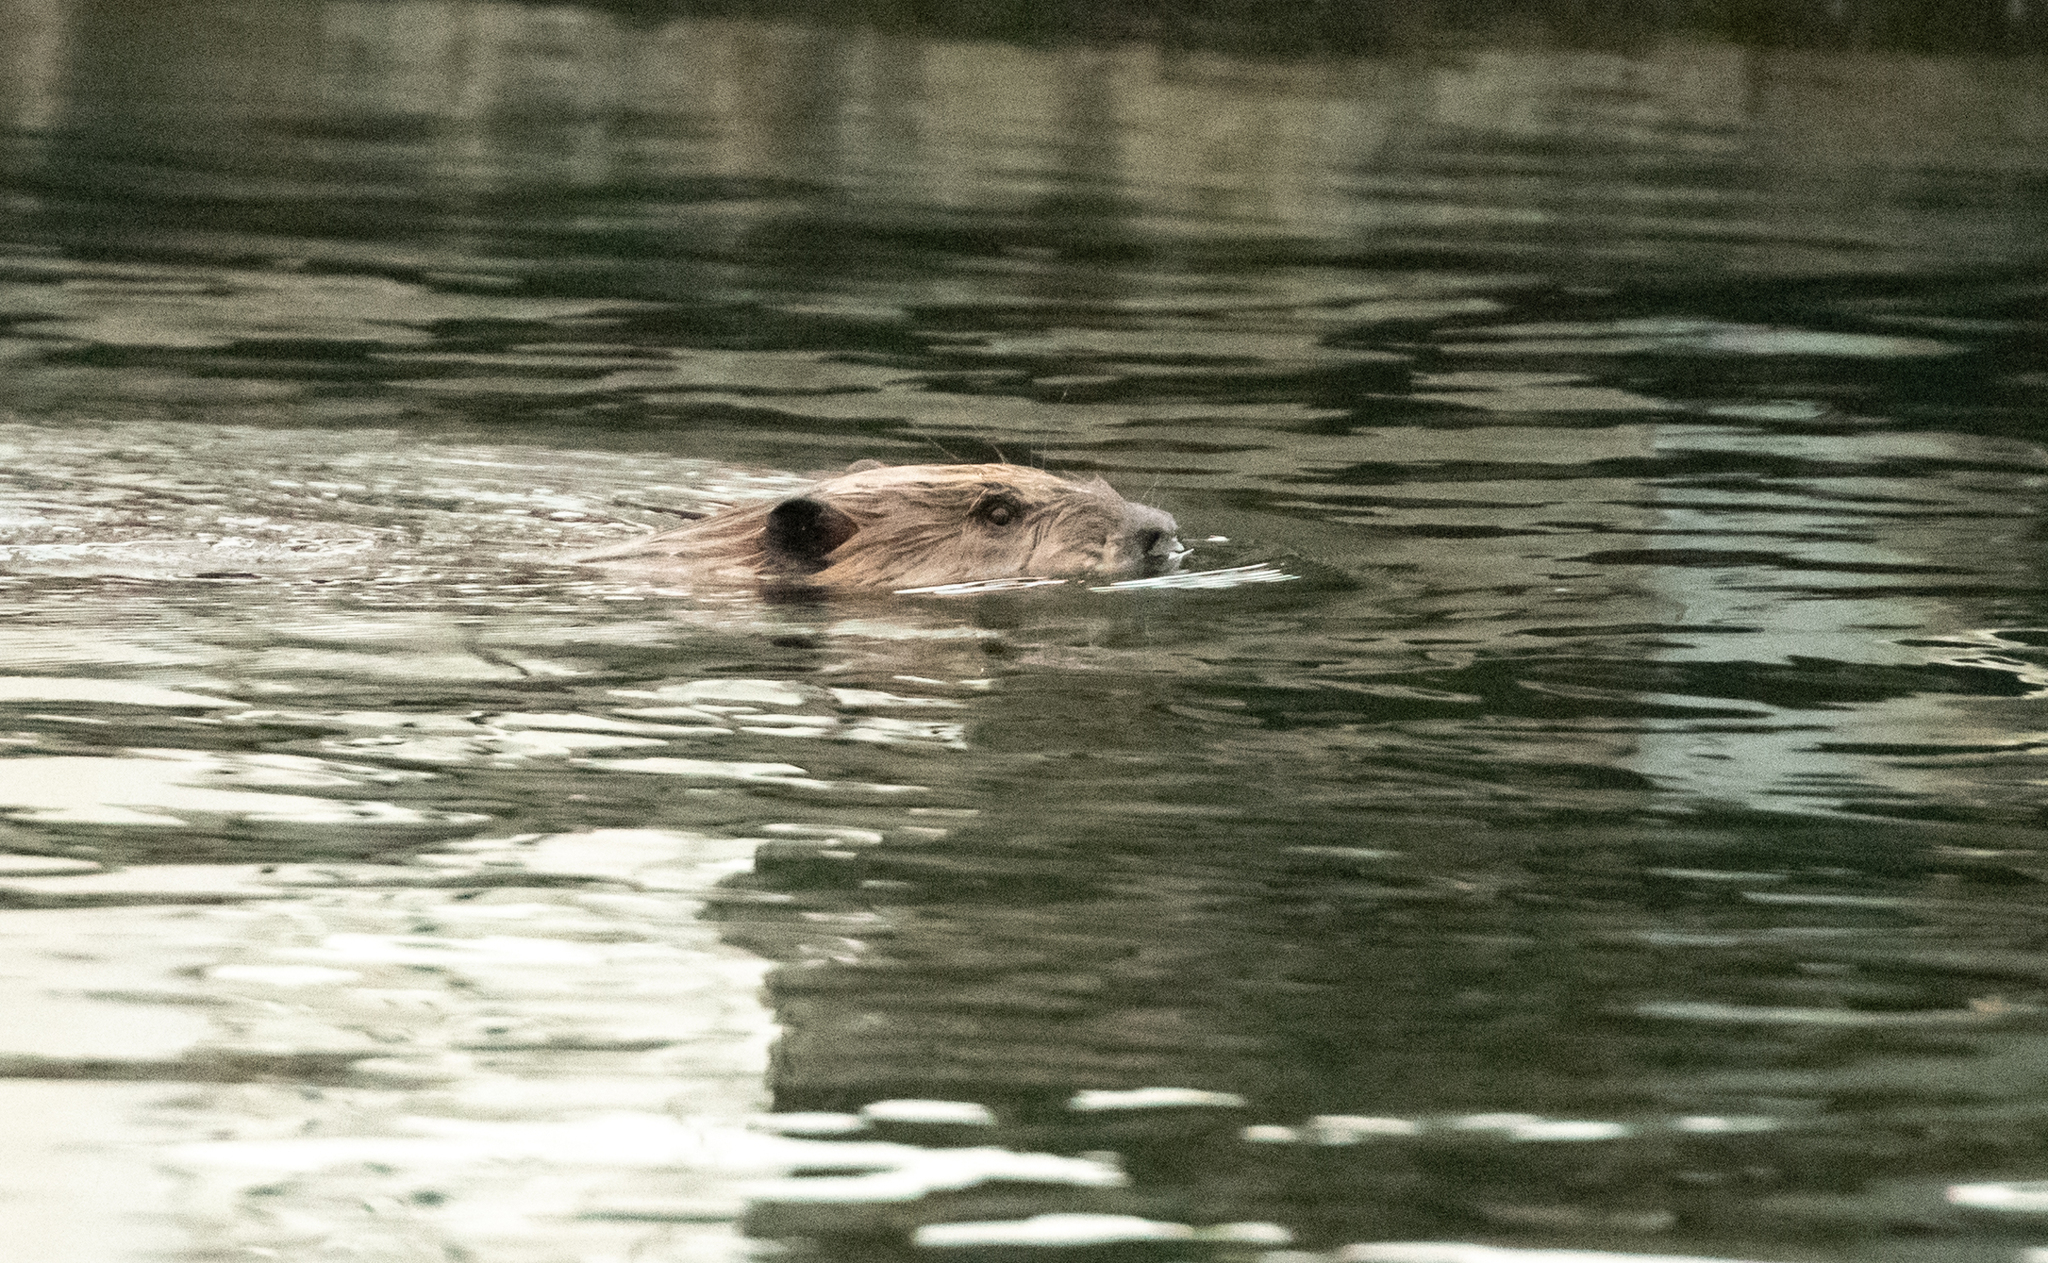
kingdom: Animalia
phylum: Chordata
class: Mammalia
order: Rodentia
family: Castoridae
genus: Castor
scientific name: Castor canadensis
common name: American beaver
